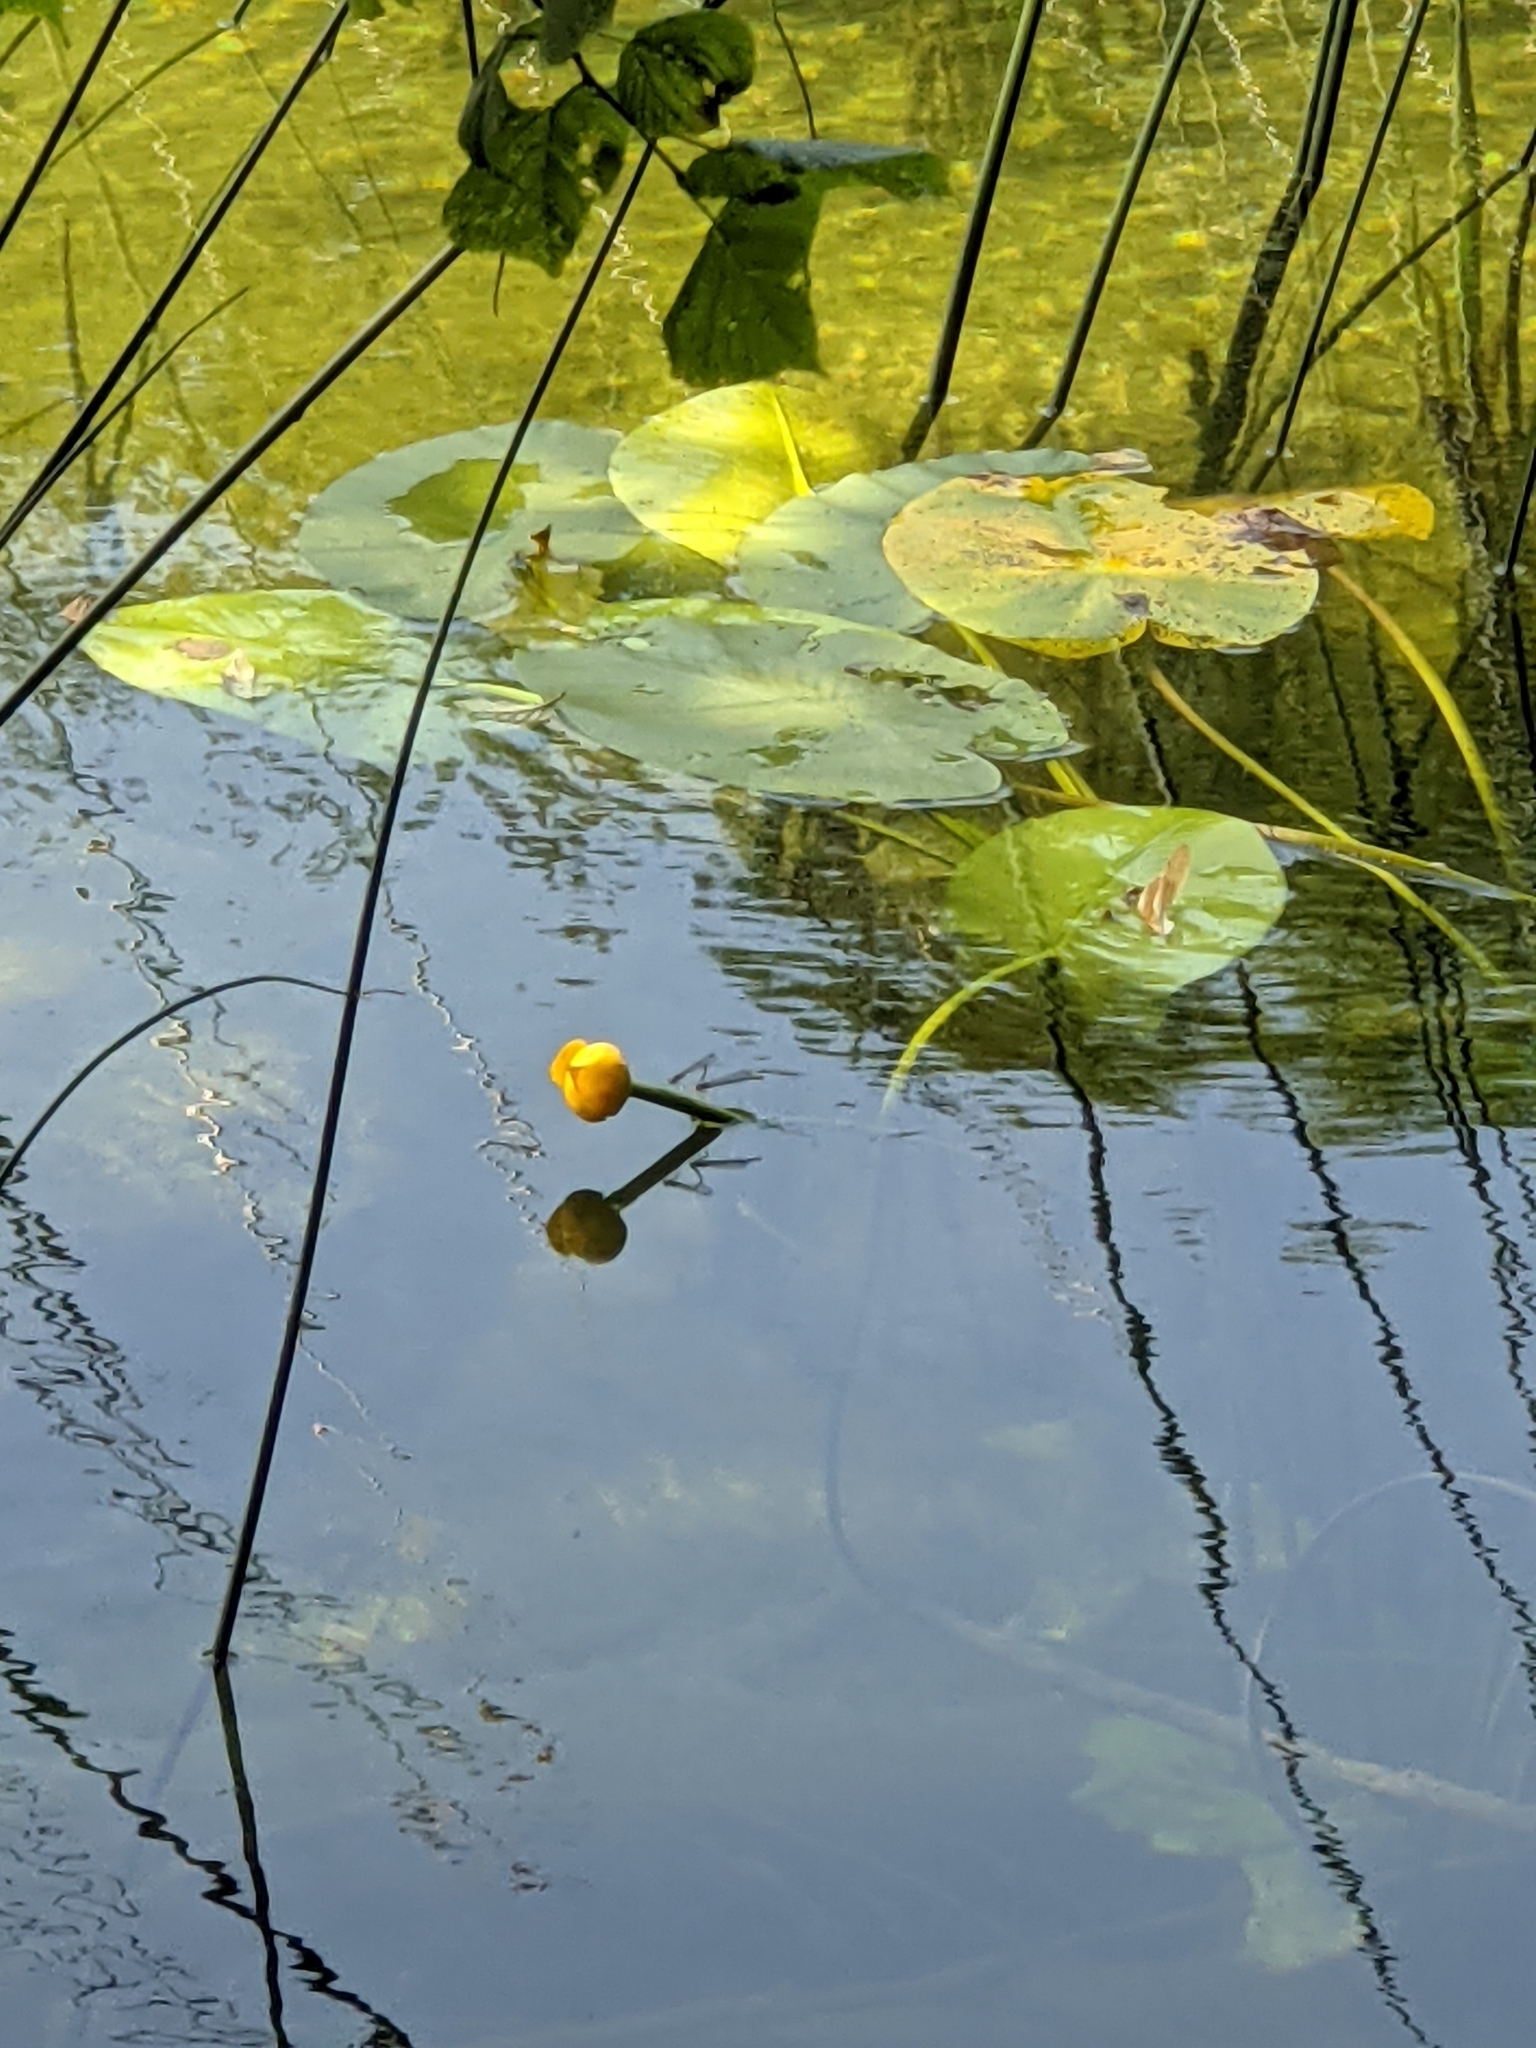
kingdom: Plantae
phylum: Tracheophyta
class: Magnoliopsida
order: Nymphaeales
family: Nymphaeaceae
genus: Nuphar
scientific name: Nuphar lutea
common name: Yellow water-lily
